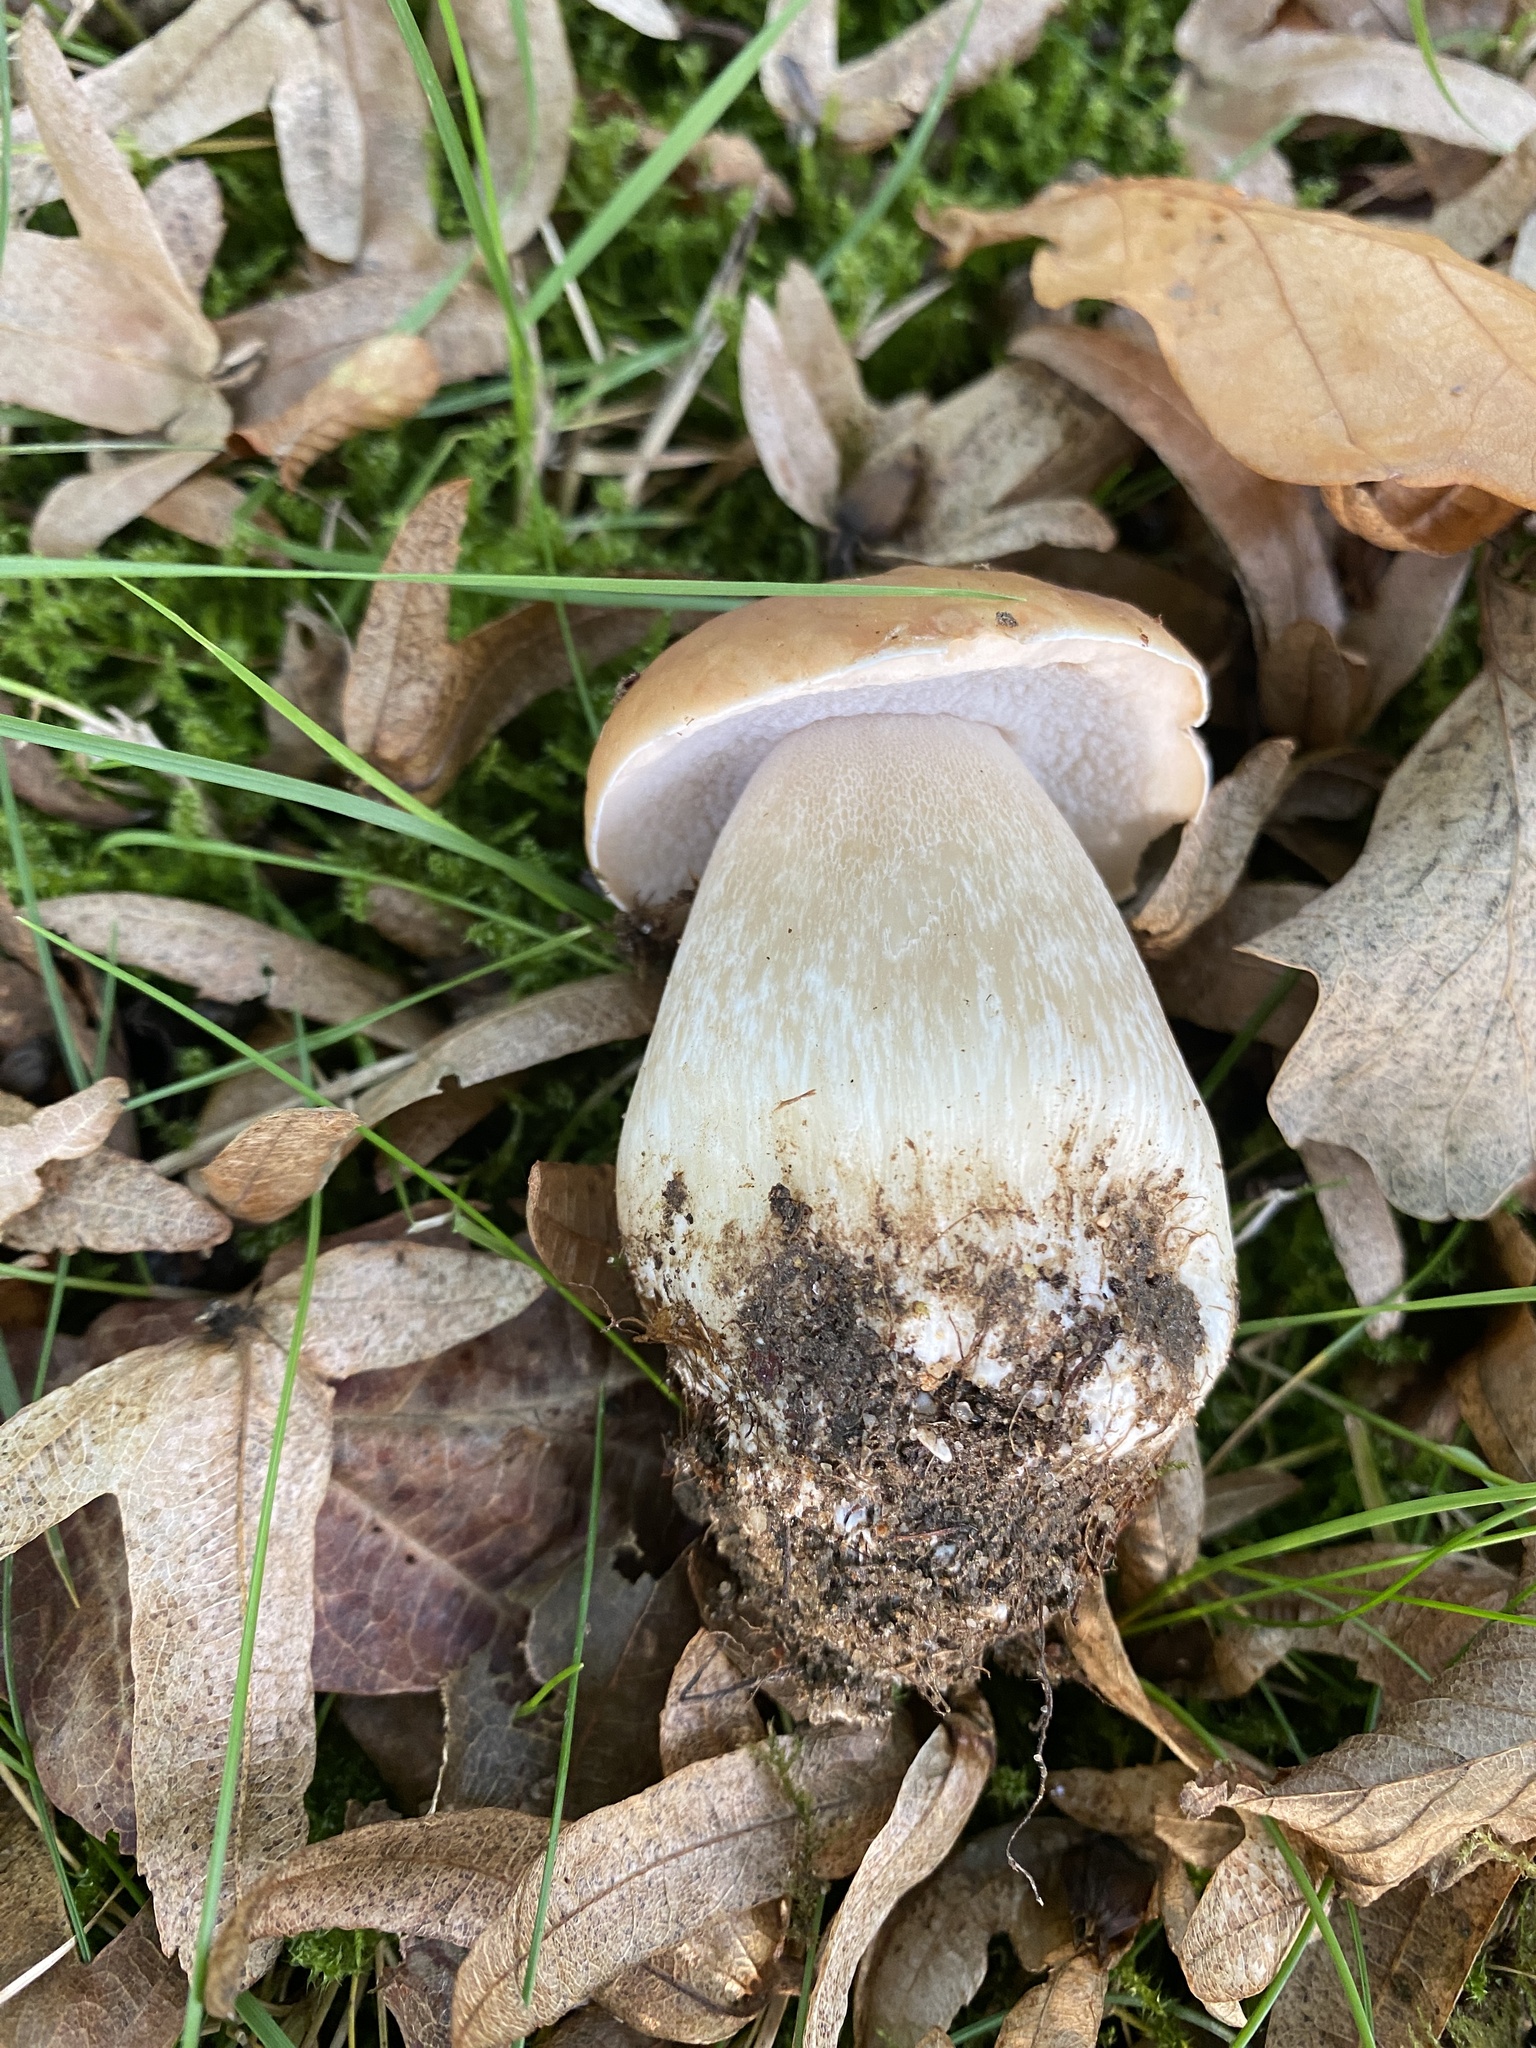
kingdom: Fungi
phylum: Basidiomycota
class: Agaricomycetes
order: Boletales
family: Boletaceae
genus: Boletus
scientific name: Boletus edulis
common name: Cep
